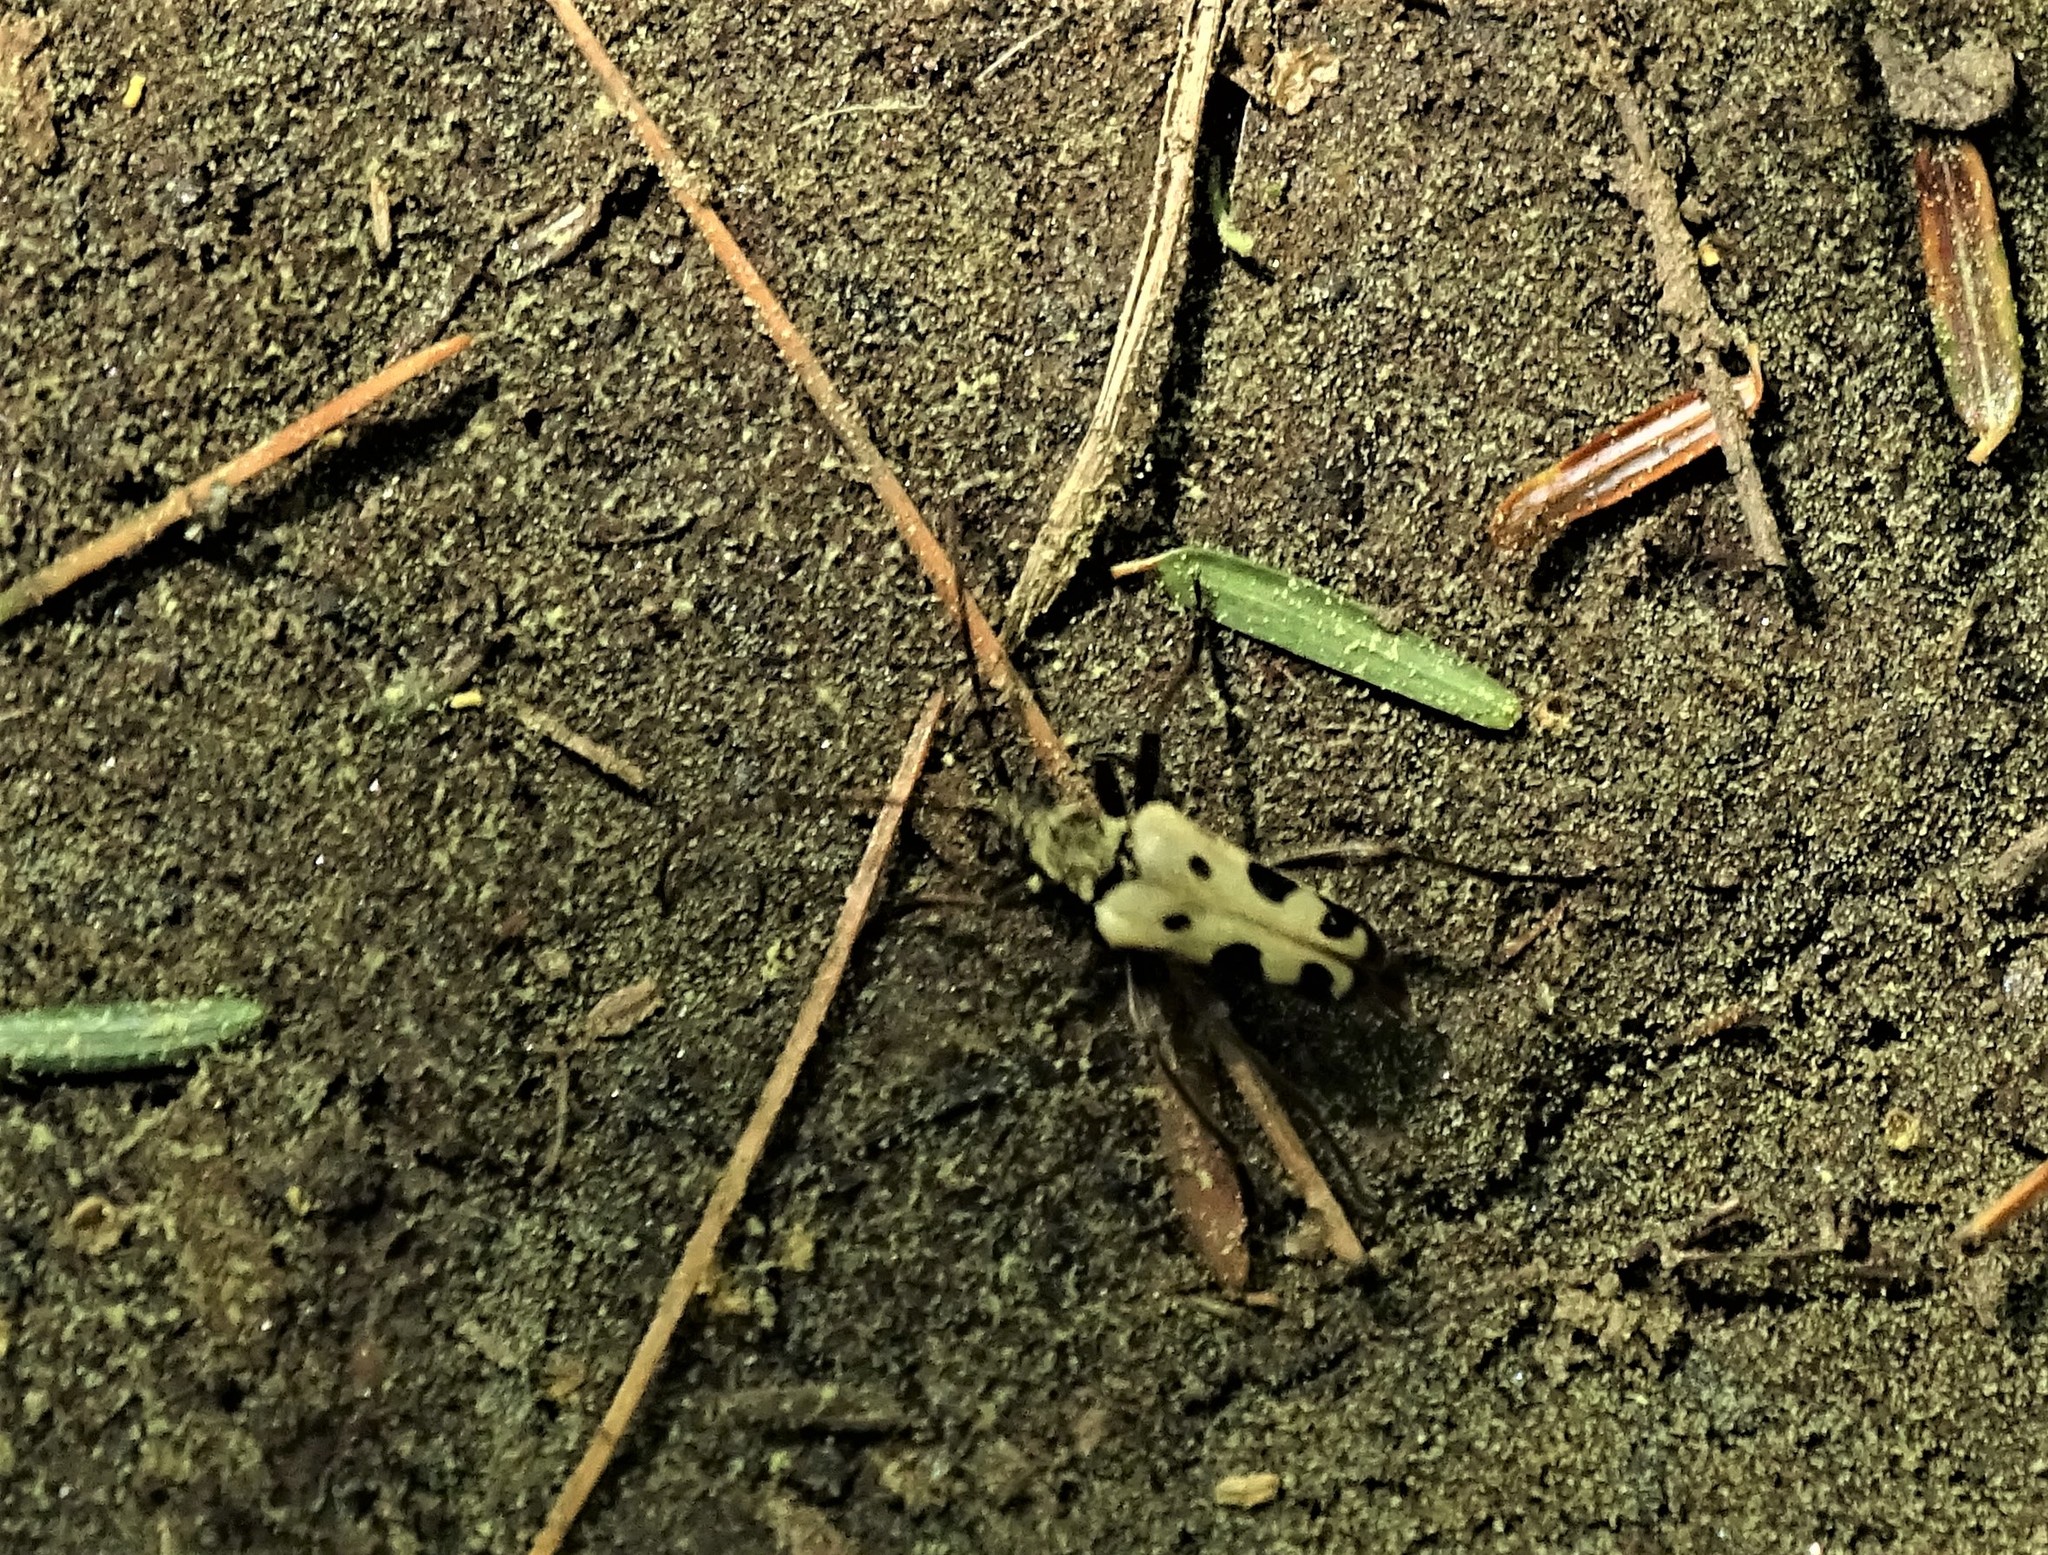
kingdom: Animalia
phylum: Arthropoda
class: Insecta
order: Coleoptera
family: Cerambycidae
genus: Evodinus
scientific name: Evodinus monticola
